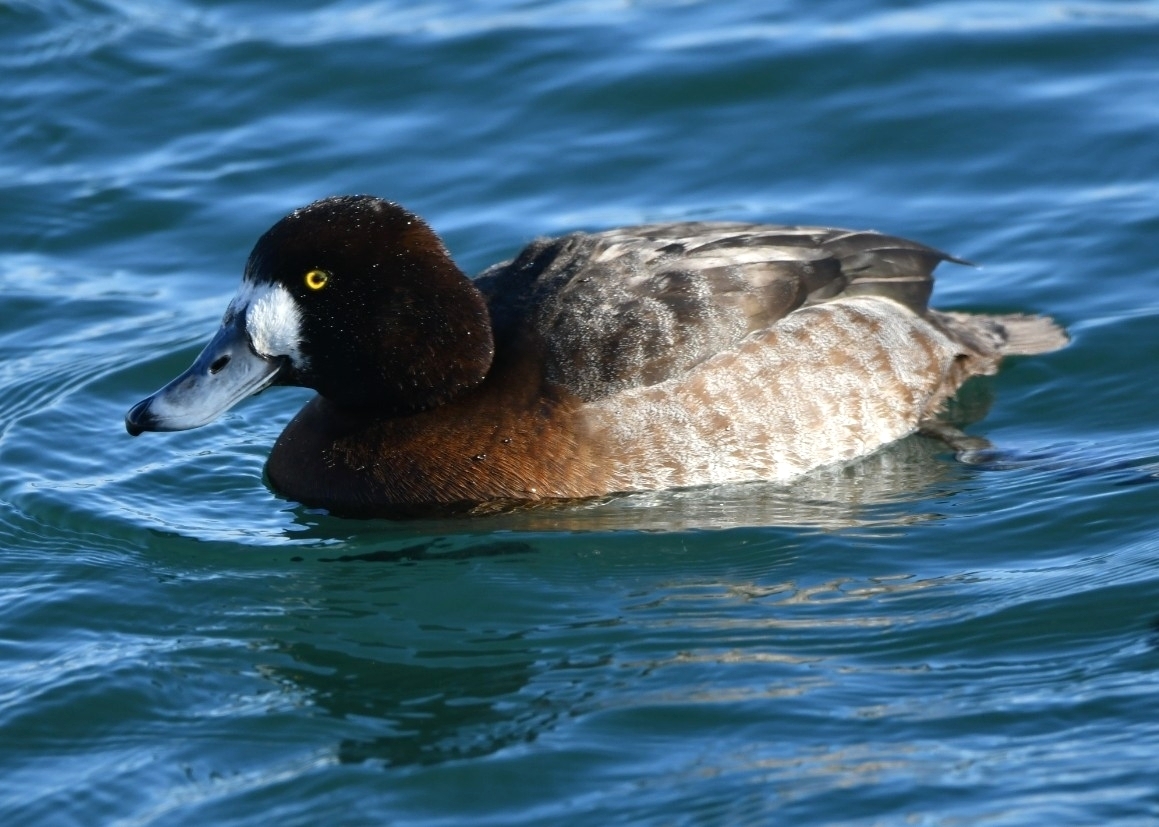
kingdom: Animalia
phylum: Chordata
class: Aves
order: Anseriformes
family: Anatidae
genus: Aythya
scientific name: Aythya marila
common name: Greater scaup
